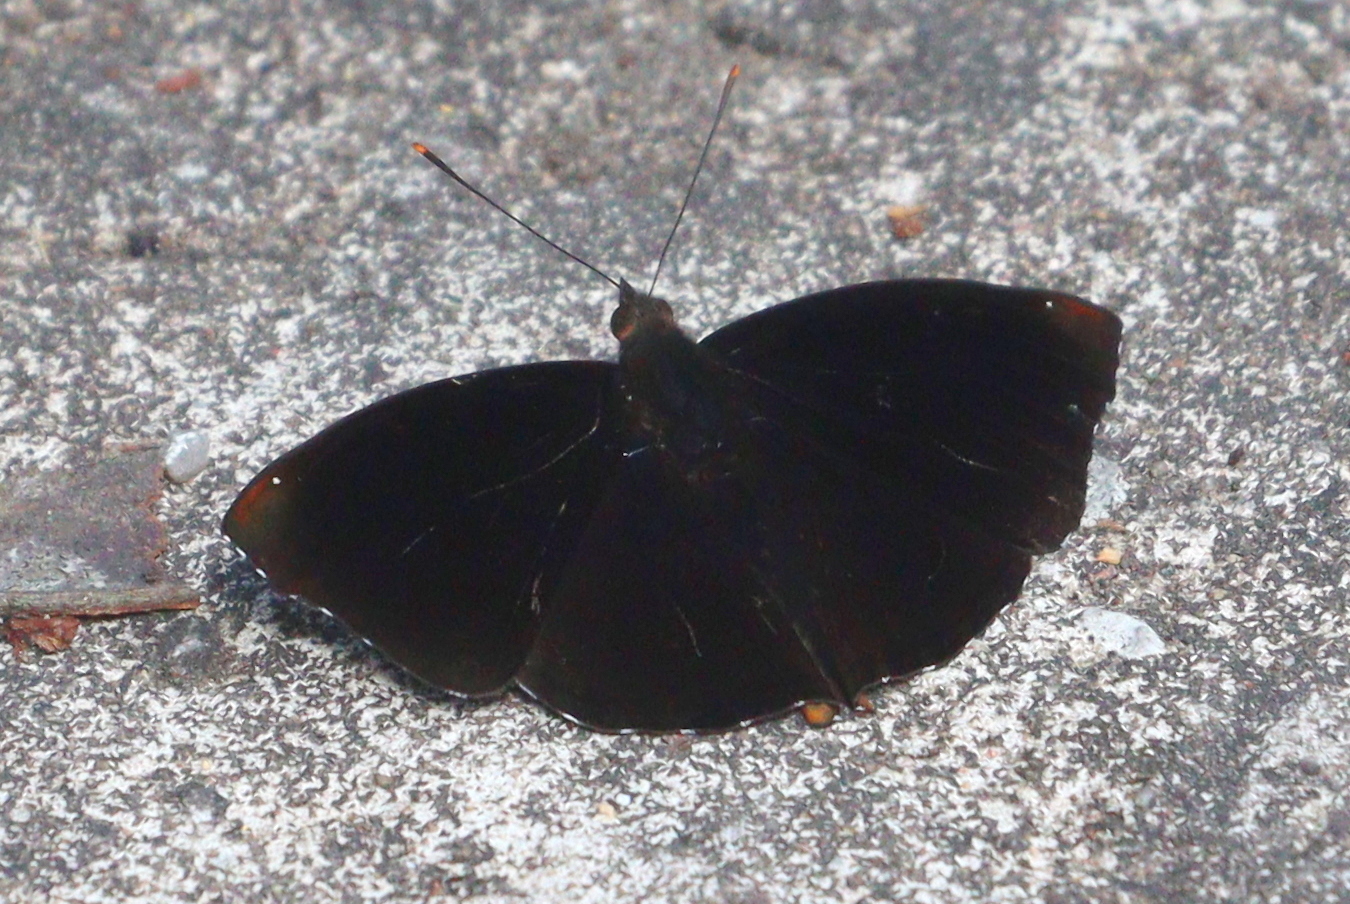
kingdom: Animalia
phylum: Arthropoda
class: Insecta
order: Lepidoptera
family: Nymphalidae
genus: Apatura
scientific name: Apatura Rohana spec
